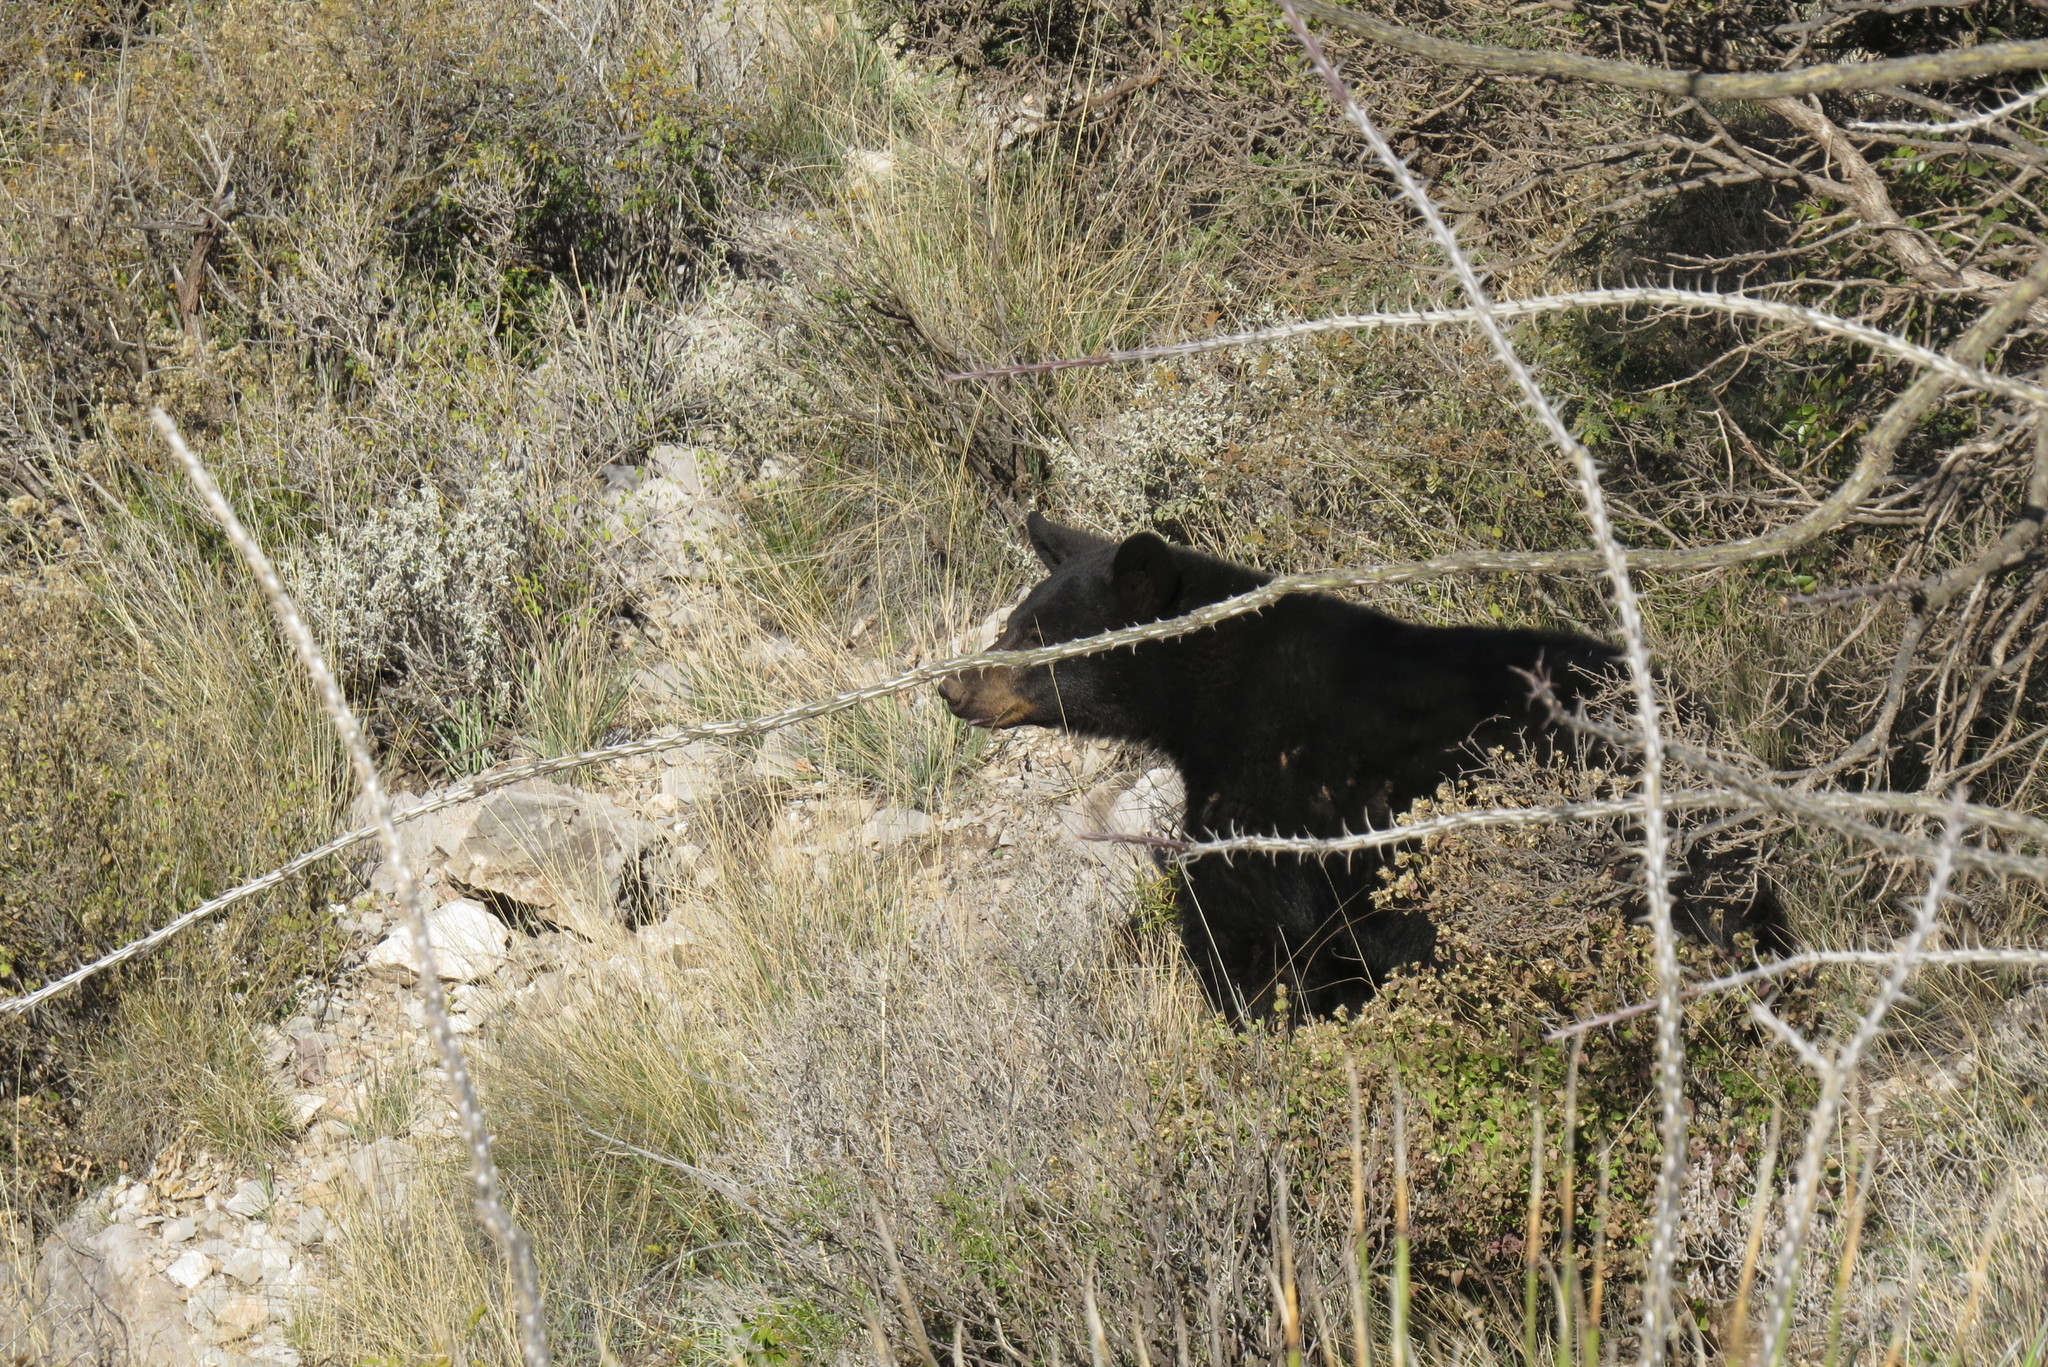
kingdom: Animalia
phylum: Chordata
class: Mammalia
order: Carnivora
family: Ursidae
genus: Ursus
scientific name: Ursus americanus
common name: American black bear
